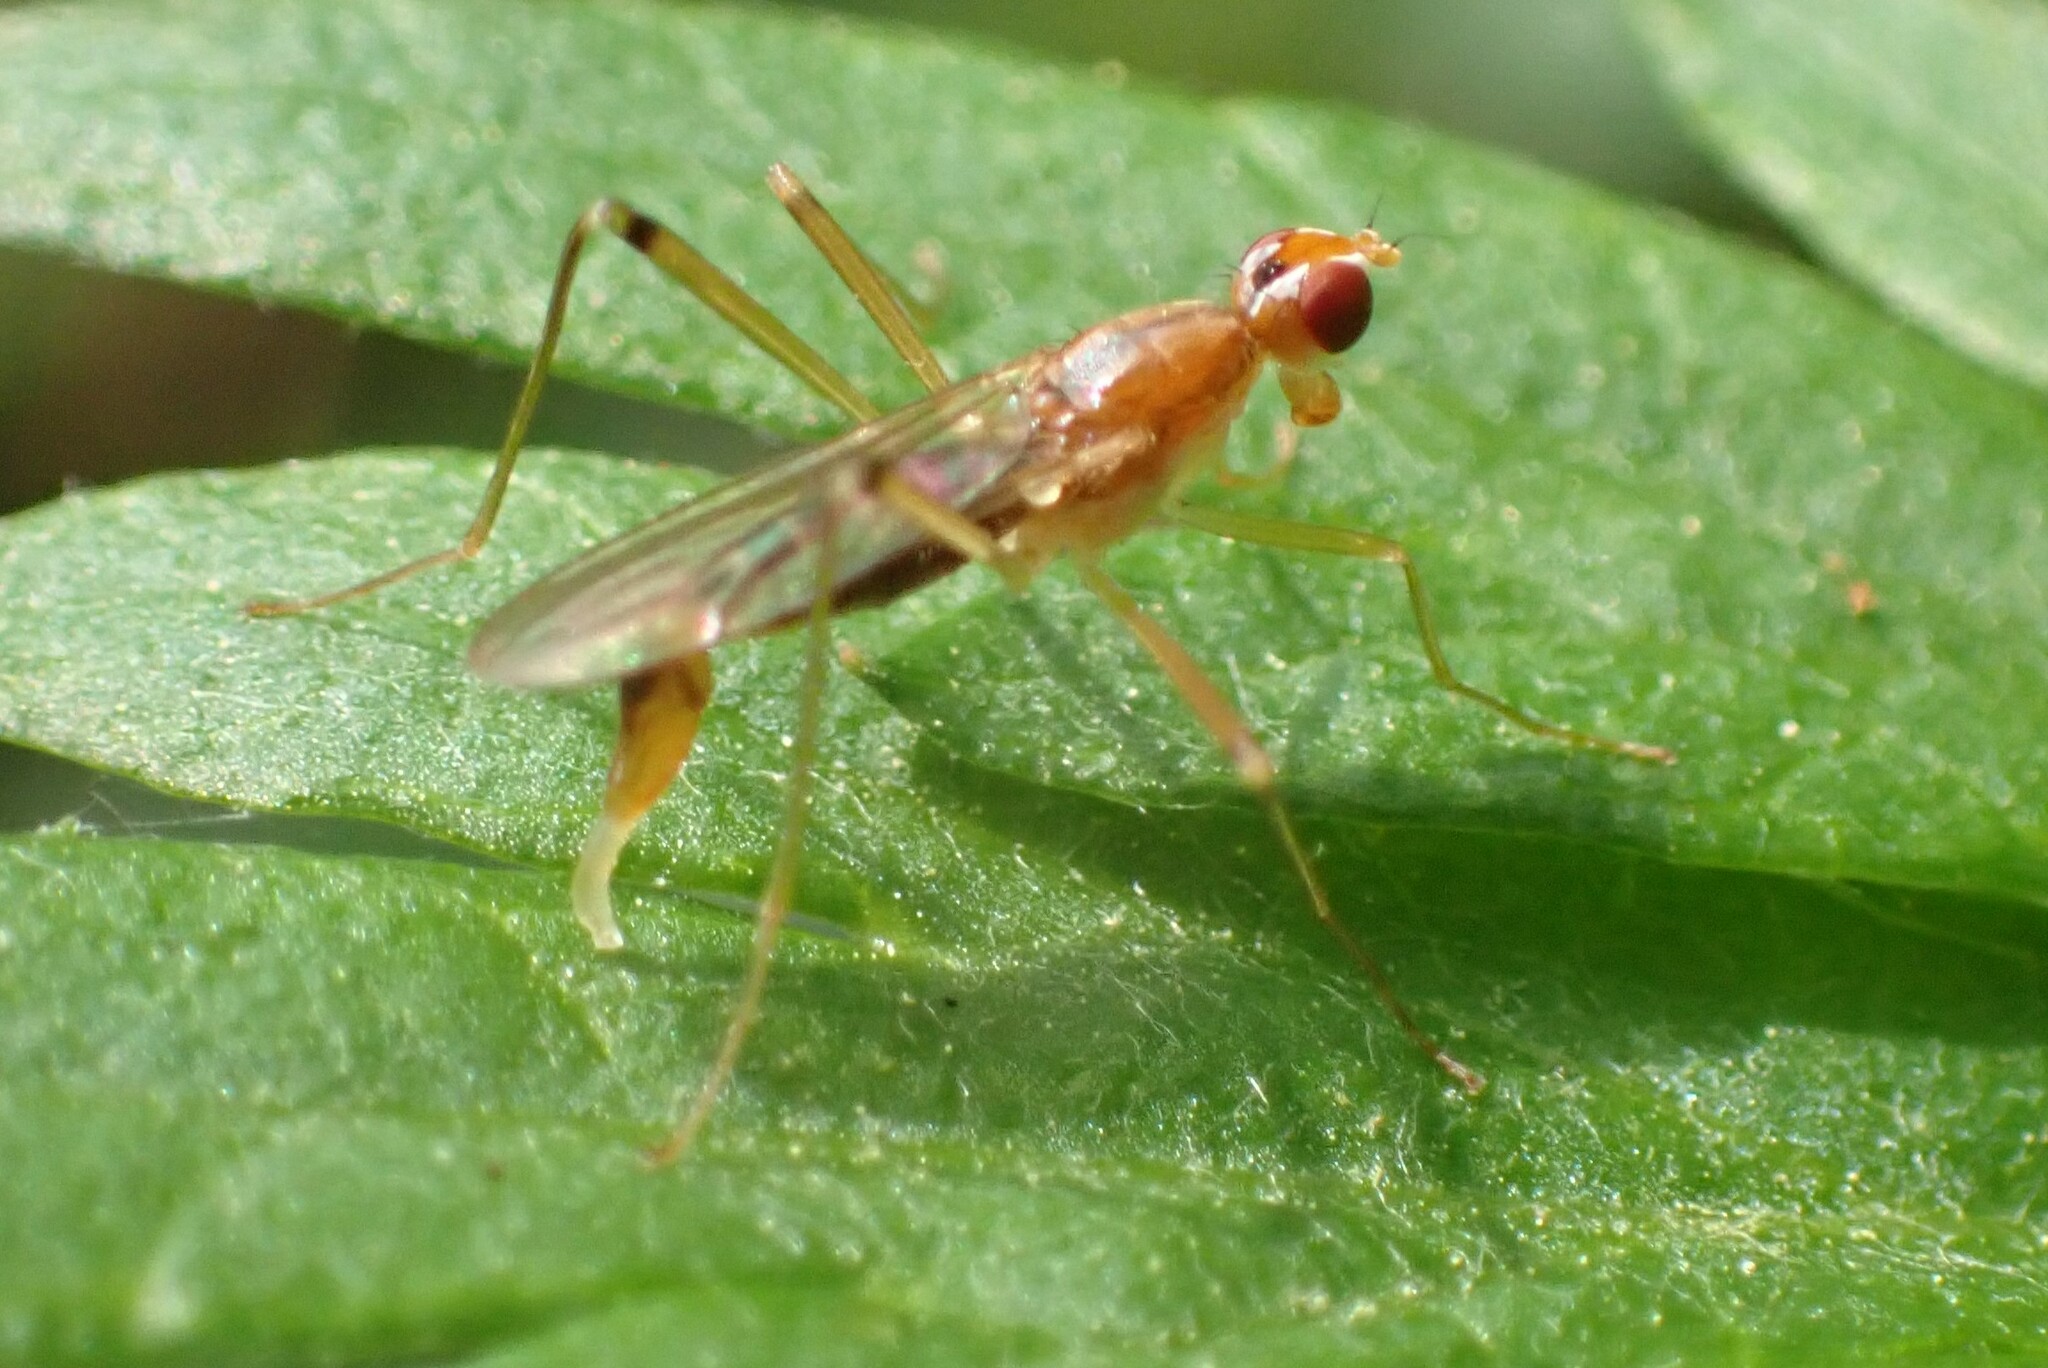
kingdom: Animalia
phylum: Arthropoda
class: Insecta
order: Diptera
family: Micropezidae
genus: Compsobata
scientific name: Compsobata univitta
